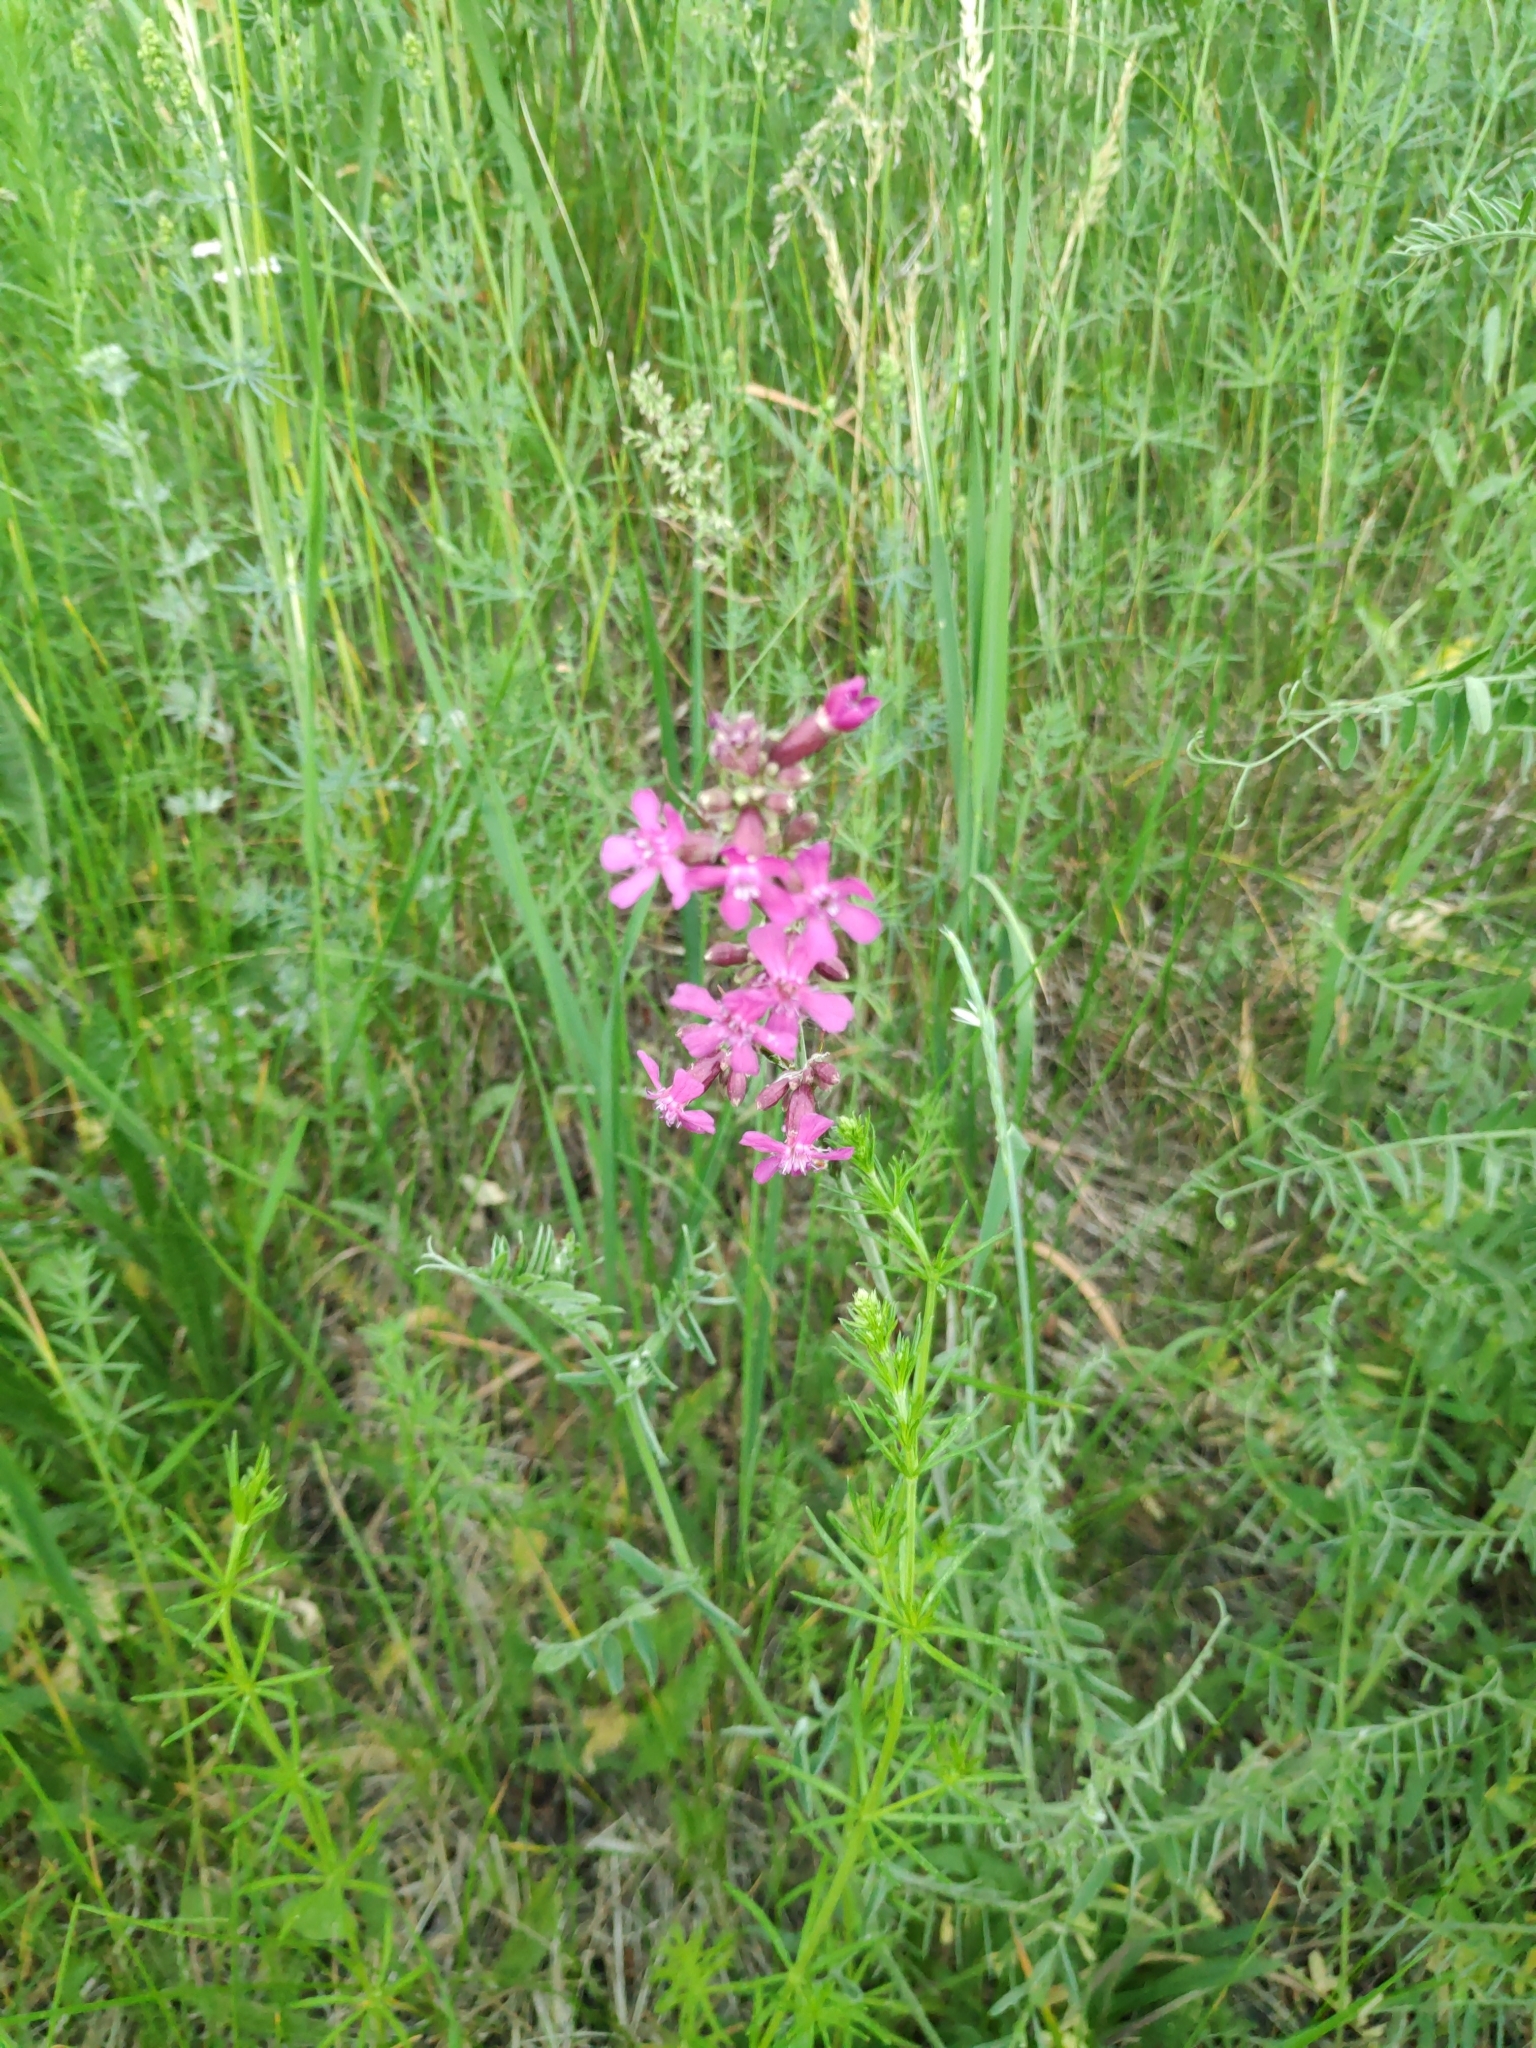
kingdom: Plantae
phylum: Tracheophyta
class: Magnoliopsida
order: Caryophyllales
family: Caryophyllaceae
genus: Viscaria
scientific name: Viscaria vulgaris
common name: Clammy campion
